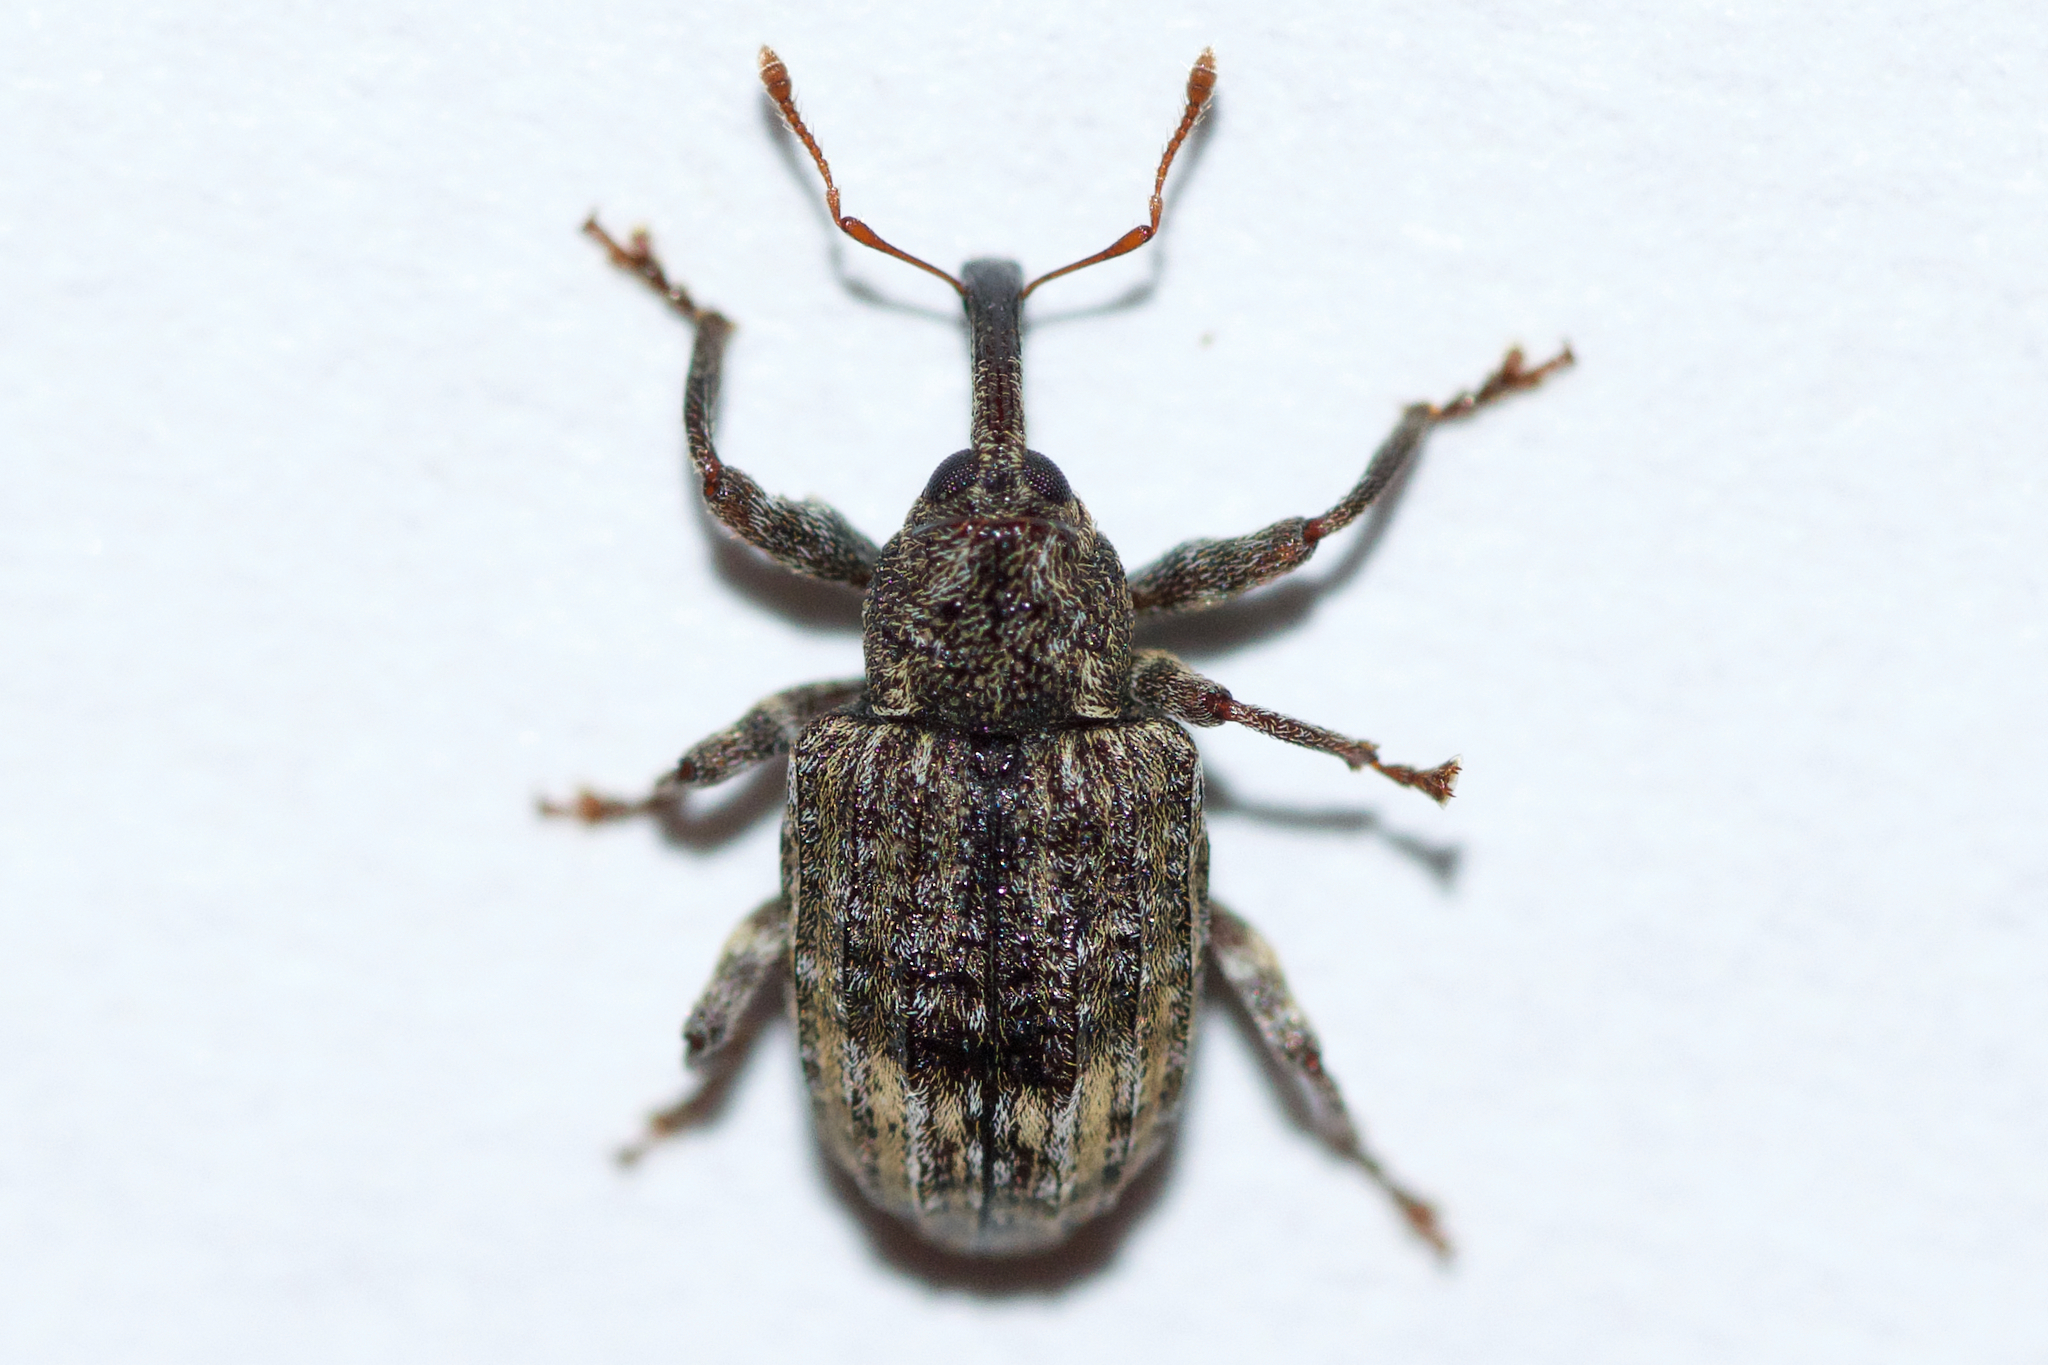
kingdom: Animalia
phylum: Arthropoda
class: Insecta
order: Coleoptera
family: Curculionidae
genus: Conotrachelus
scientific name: Conotrachelus seniculus
